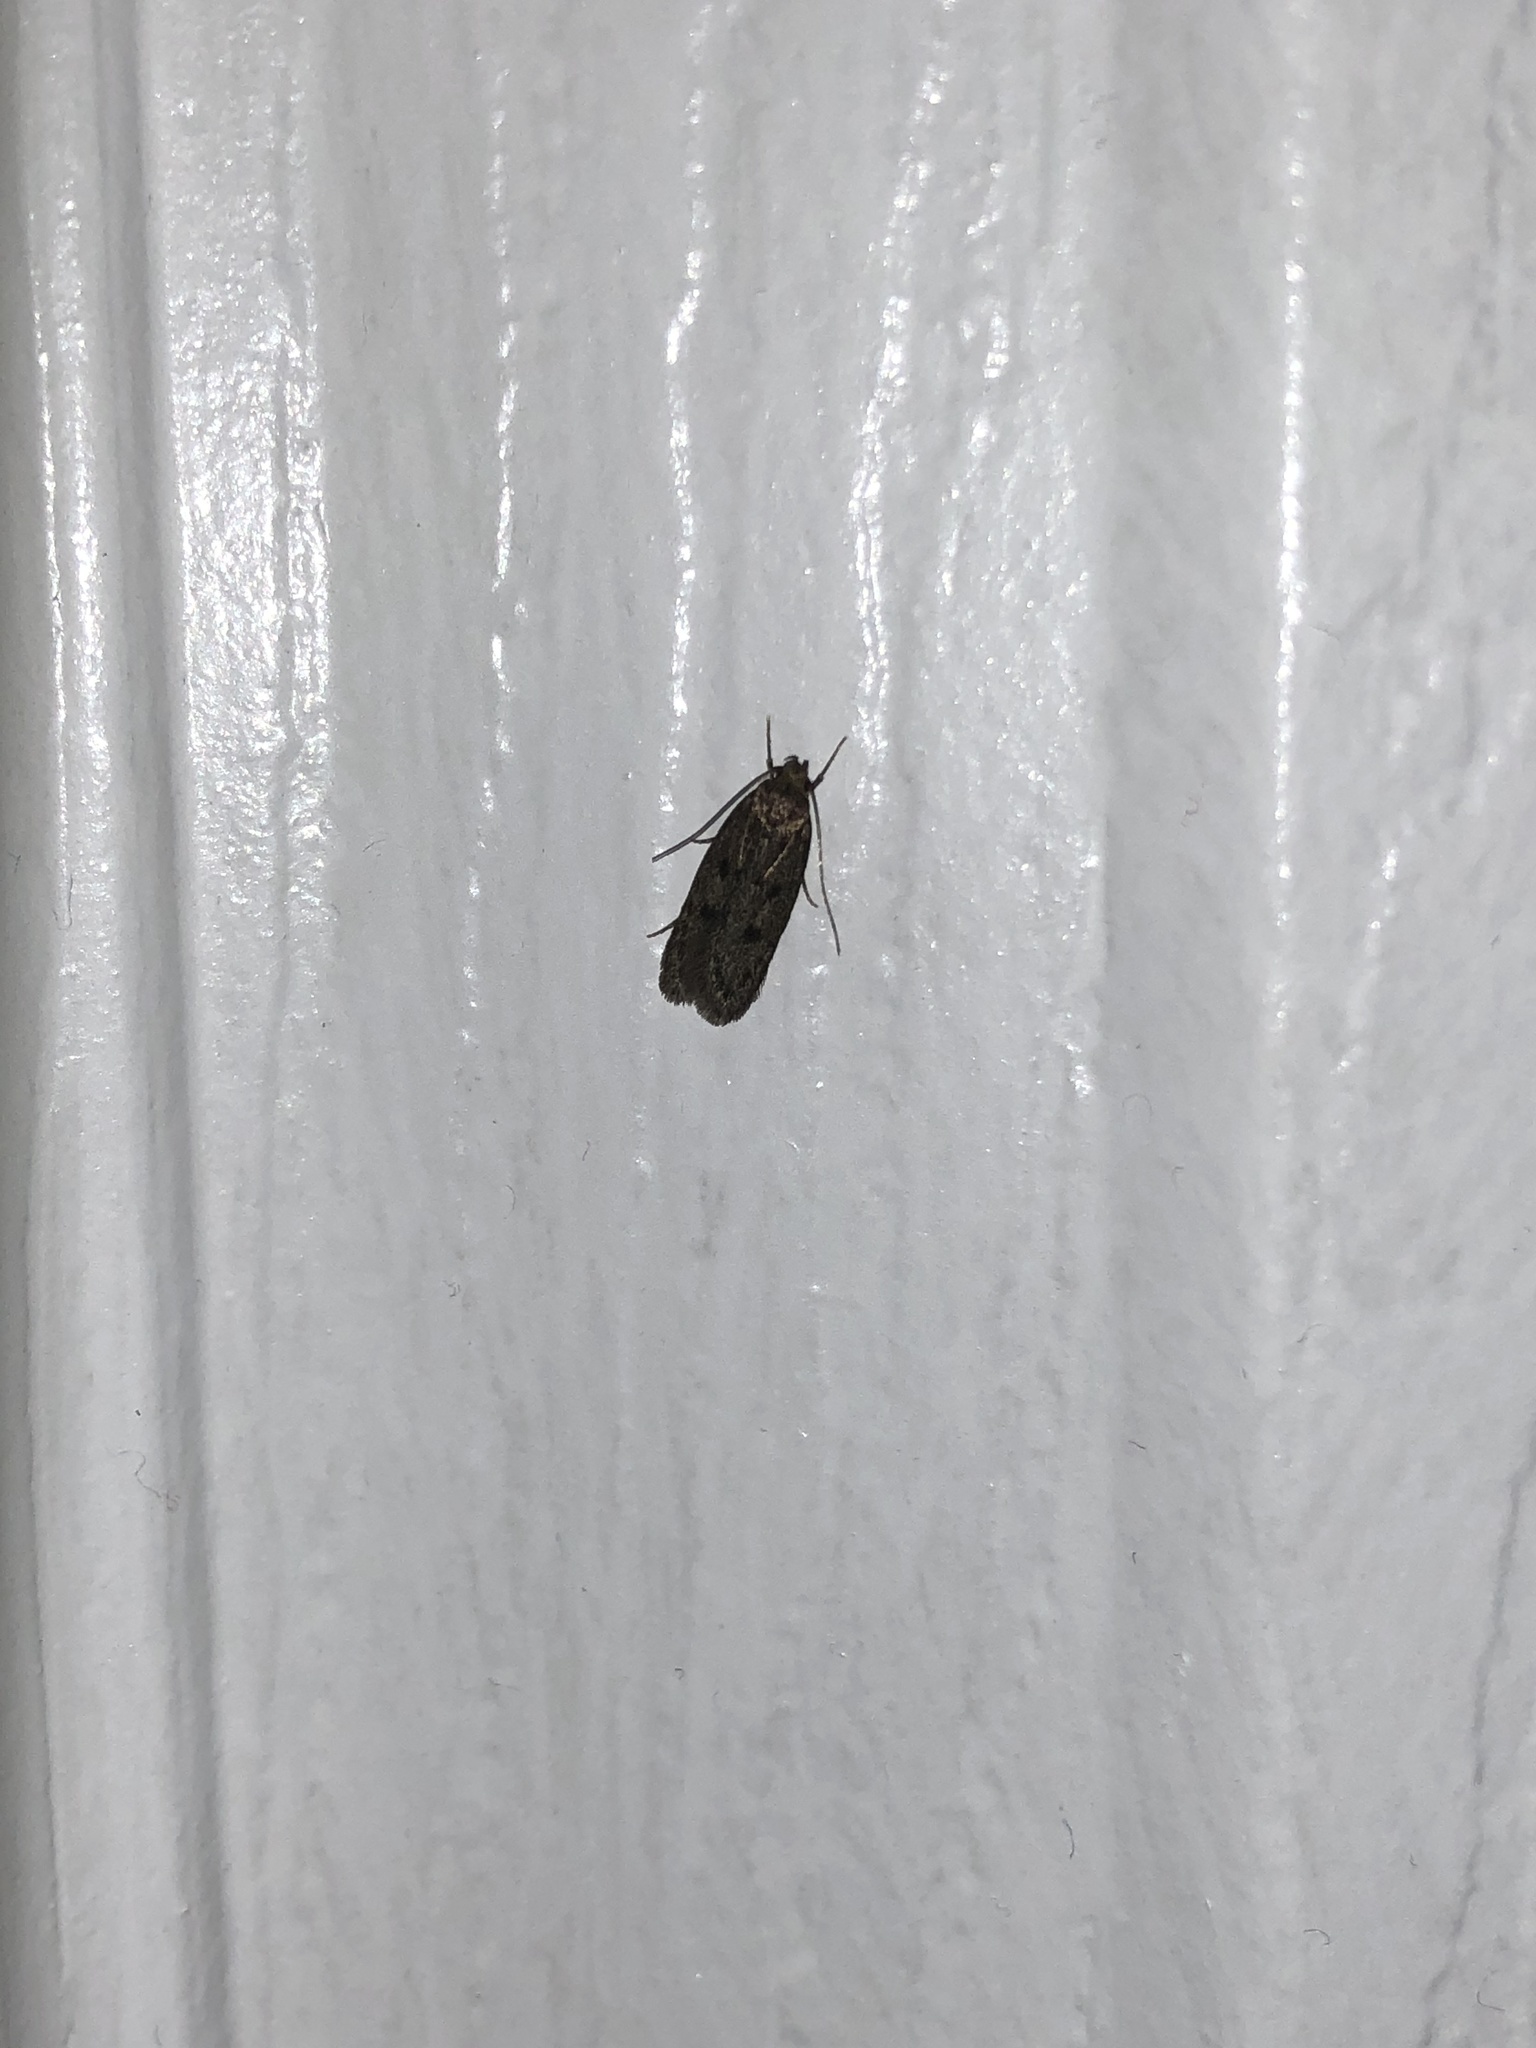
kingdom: Animalia
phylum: Arthropoda
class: Insecta
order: Lepidoptera
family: Oecophoridae
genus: Hofmannophila
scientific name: Hofmannophila pseudospretella
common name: Brown house moth
